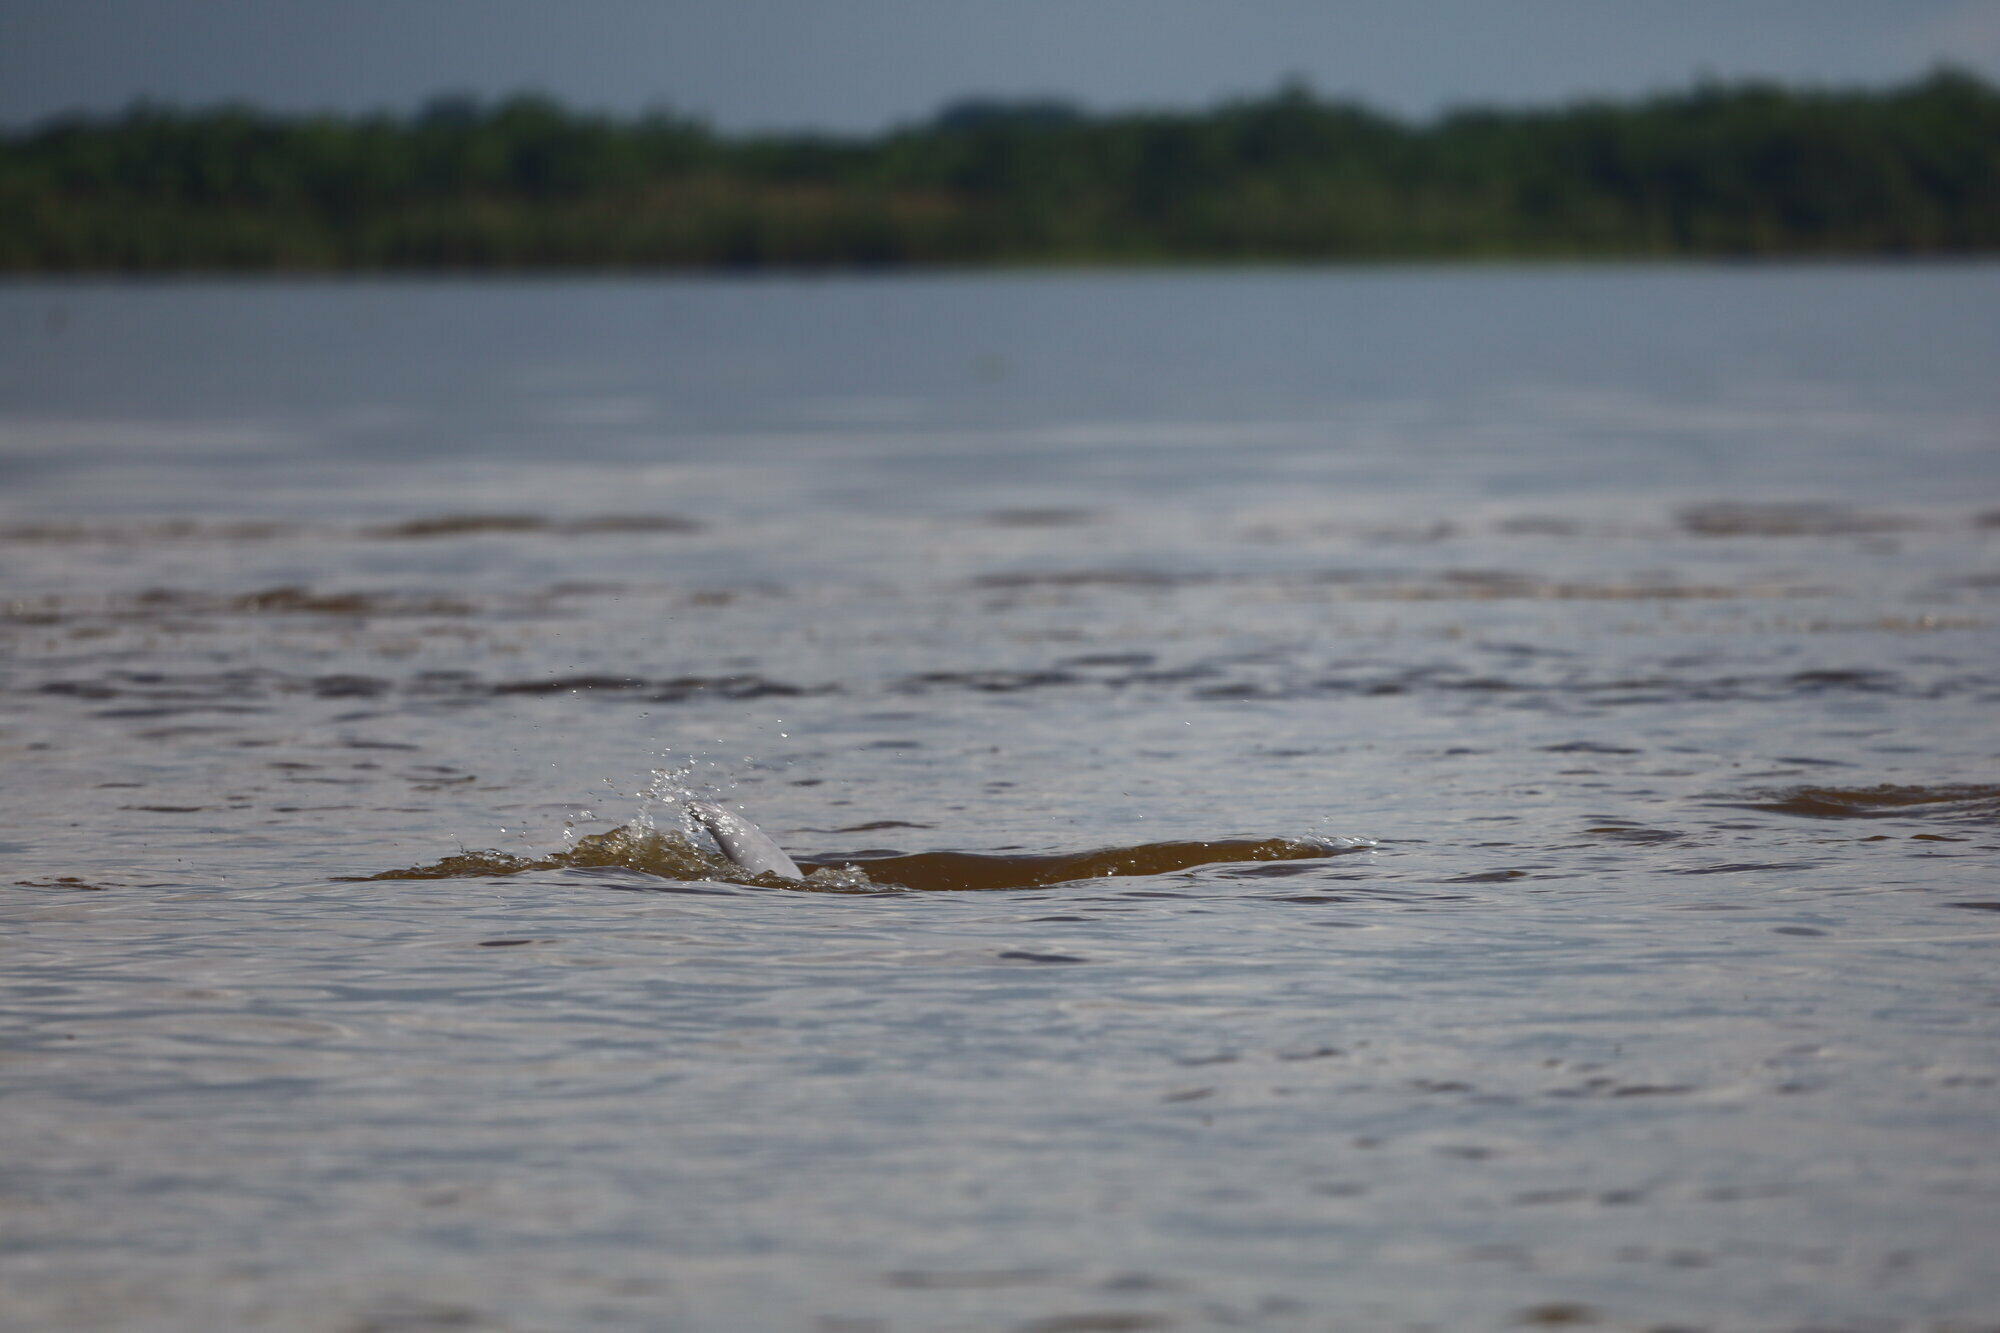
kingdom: Animalia
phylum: Chordata
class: Mammalia
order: Cetacea
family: Delphinidae
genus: Sotalia
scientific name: Sotalia fluviatilis
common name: Tucuxi
